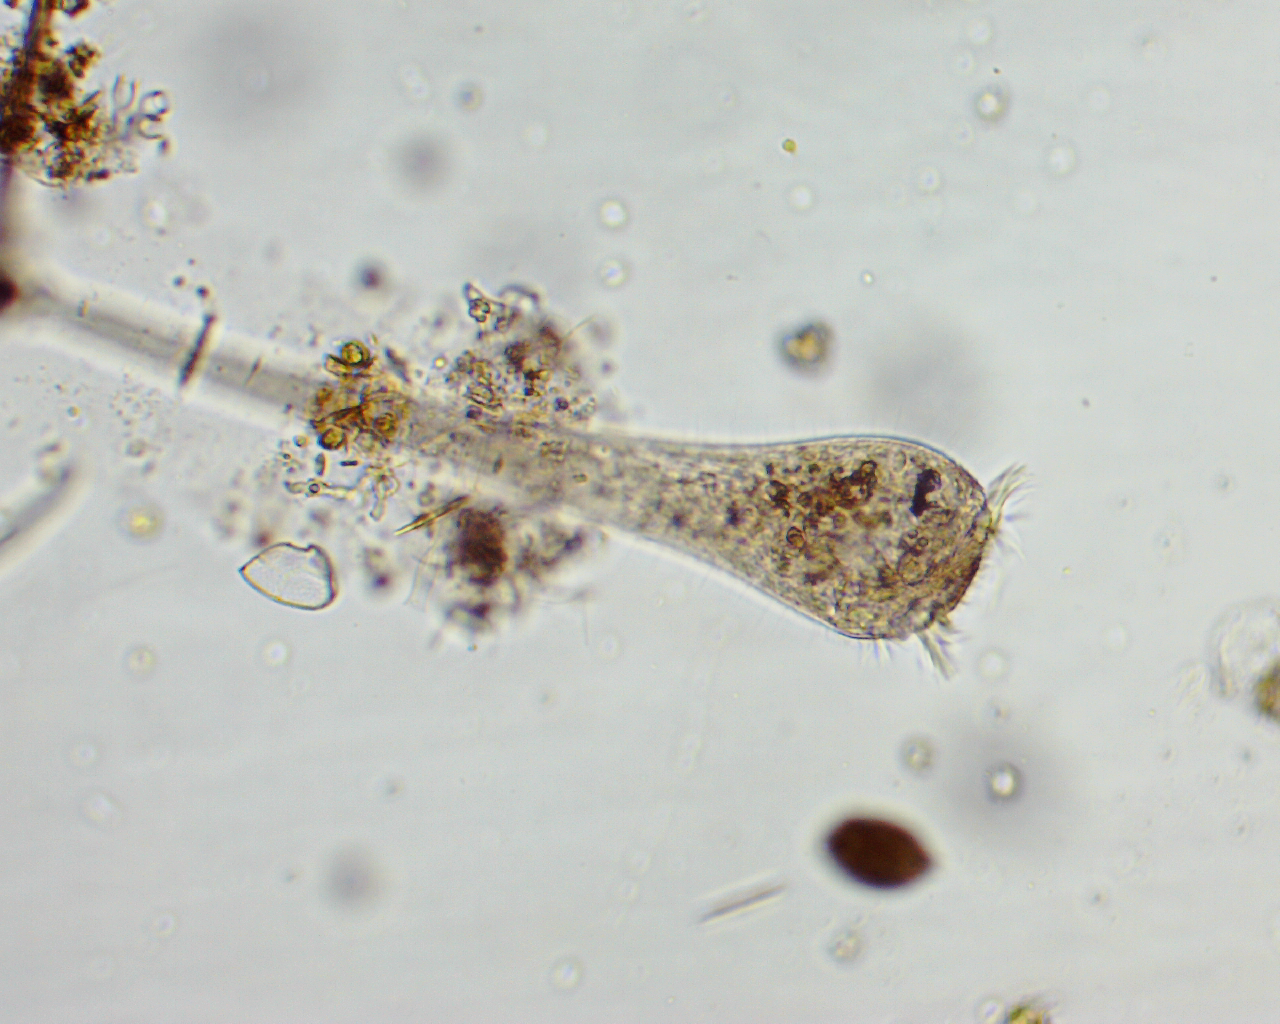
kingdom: Chromista
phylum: Ciliophora
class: Heterotrichea
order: Heterotrichida
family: Stentoridae
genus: Stentor
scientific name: Stentor
